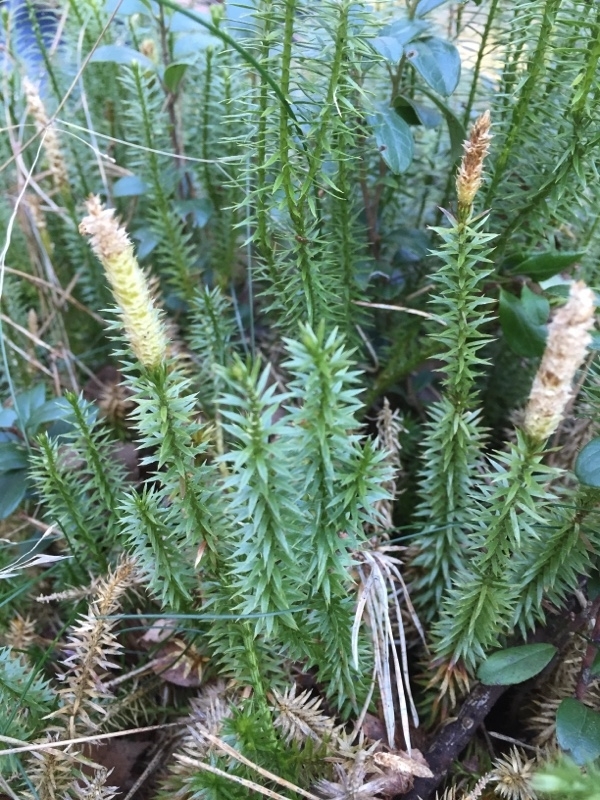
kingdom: Plantae
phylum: Tracheophyta
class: Lycopodiopsida
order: Lycopodiales
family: Lycopodiaceae
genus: Spinulum
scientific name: Spinulum annotinum
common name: Interrupted club-moss
